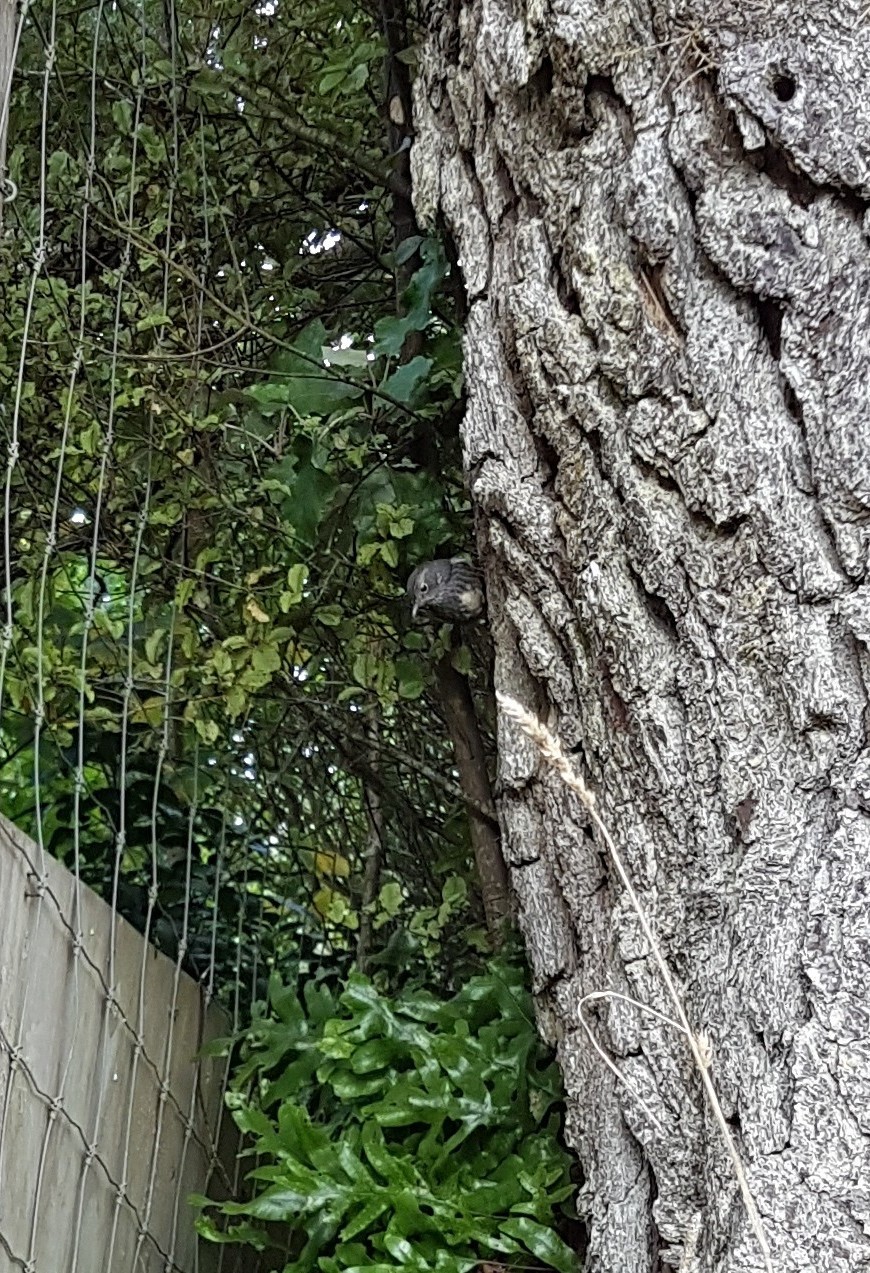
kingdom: Animalia
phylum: Chordata
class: Aves
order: Passeriformes
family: Petroicidae
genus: Petroica
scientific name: Petroica australis
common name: New zealand robin
